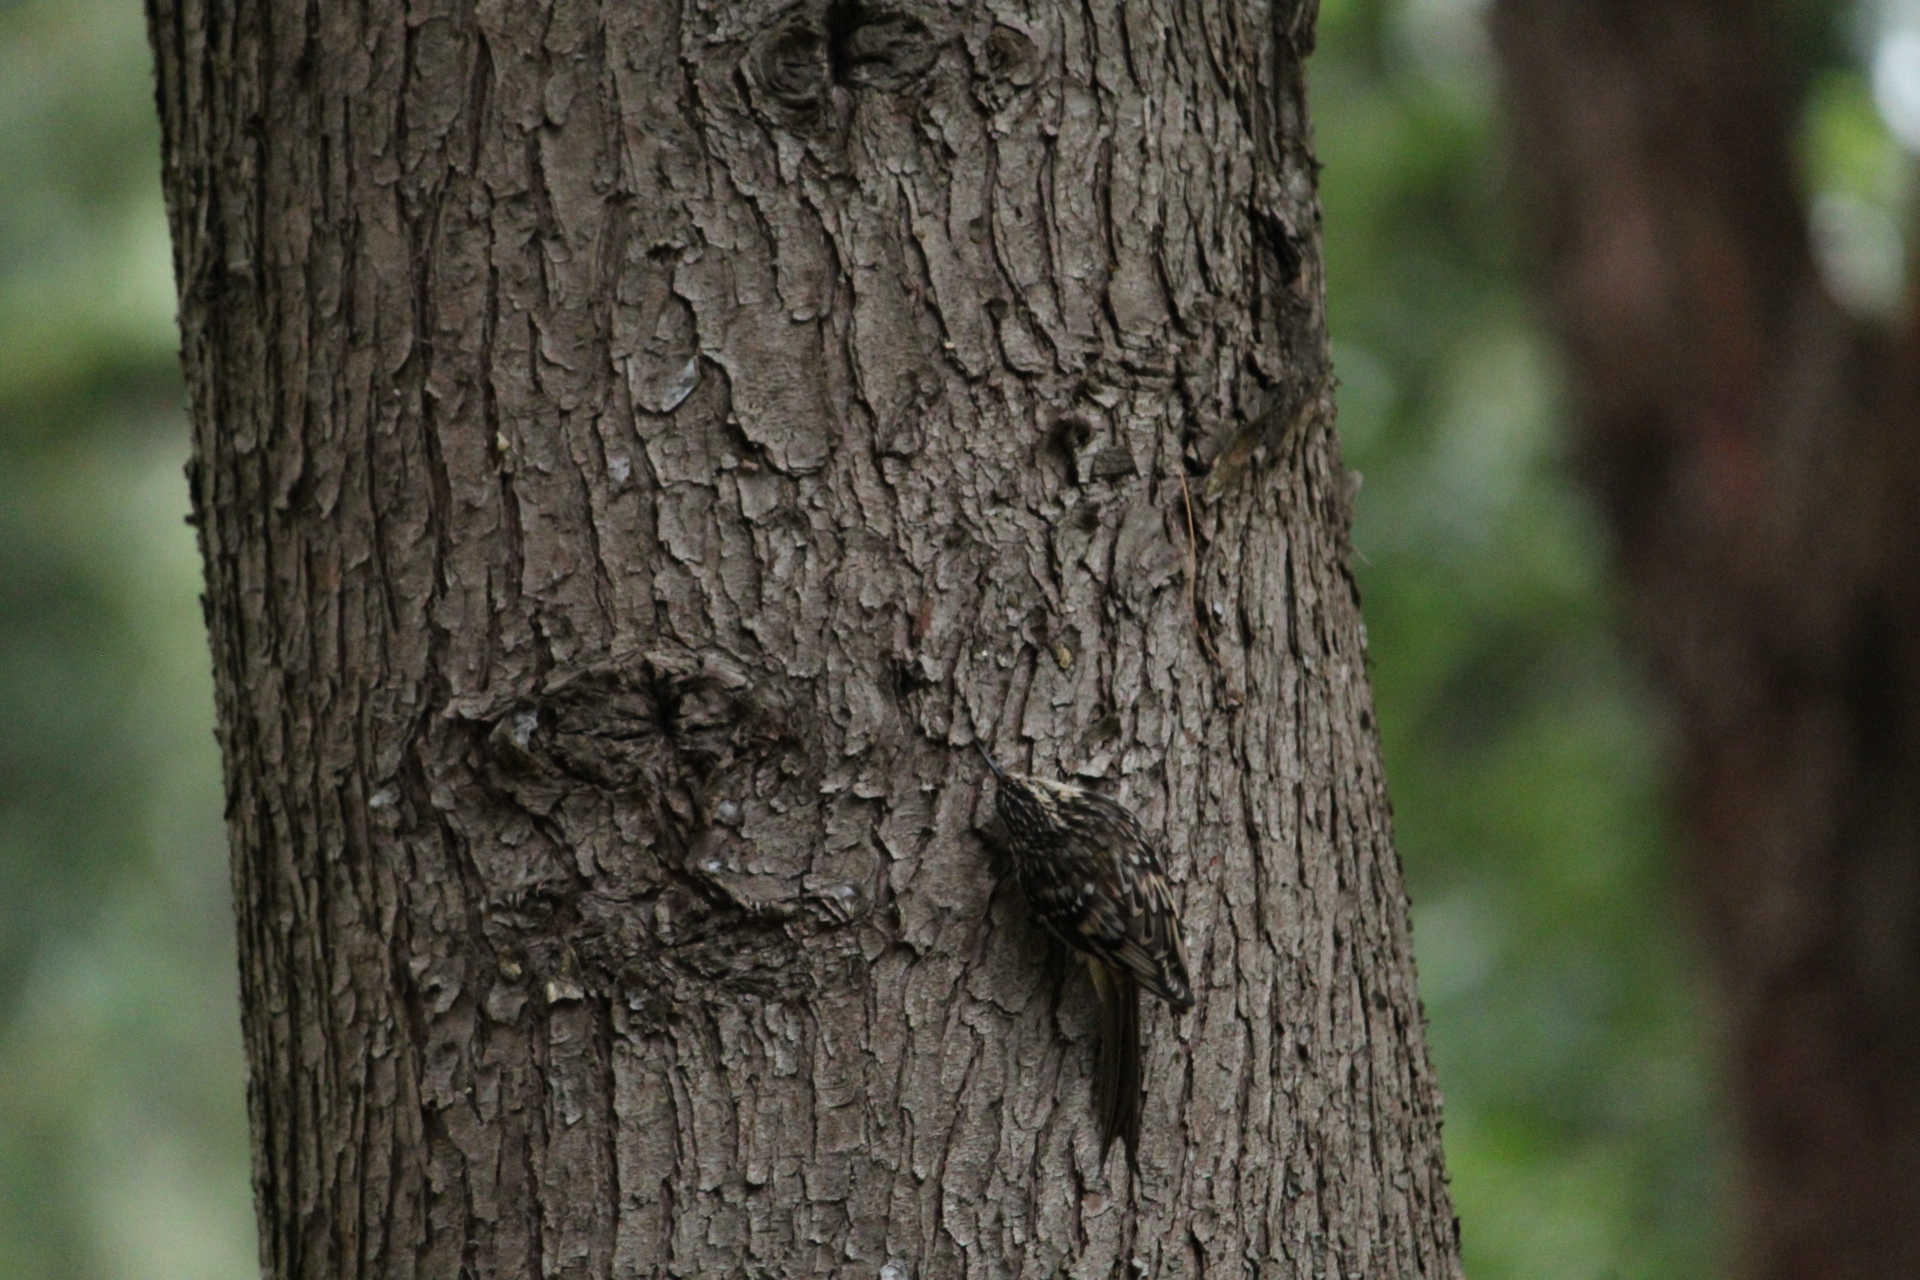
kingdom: Animalia
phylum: Chordata
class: Aves
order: Passeriformes
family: Certhiidae
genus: Certhia
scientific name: Certhia americana
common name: Brown creeper
